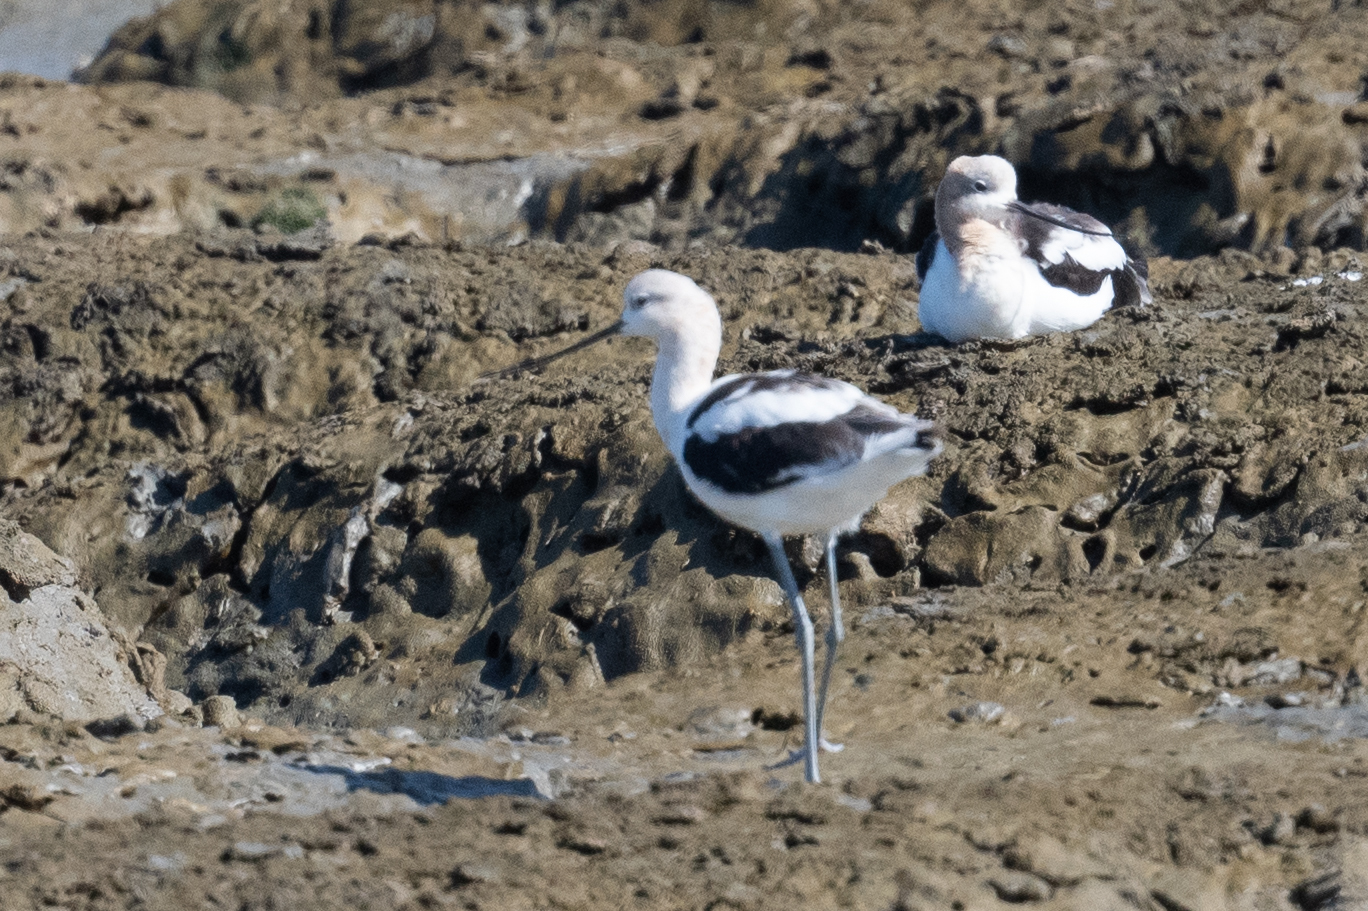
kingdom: Animalia
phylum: Chordata
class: Aves
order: Charadriiformes
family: Recurvirostridae
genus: Recurvirostra
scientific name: Recurvirostra americana
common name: American avocet
